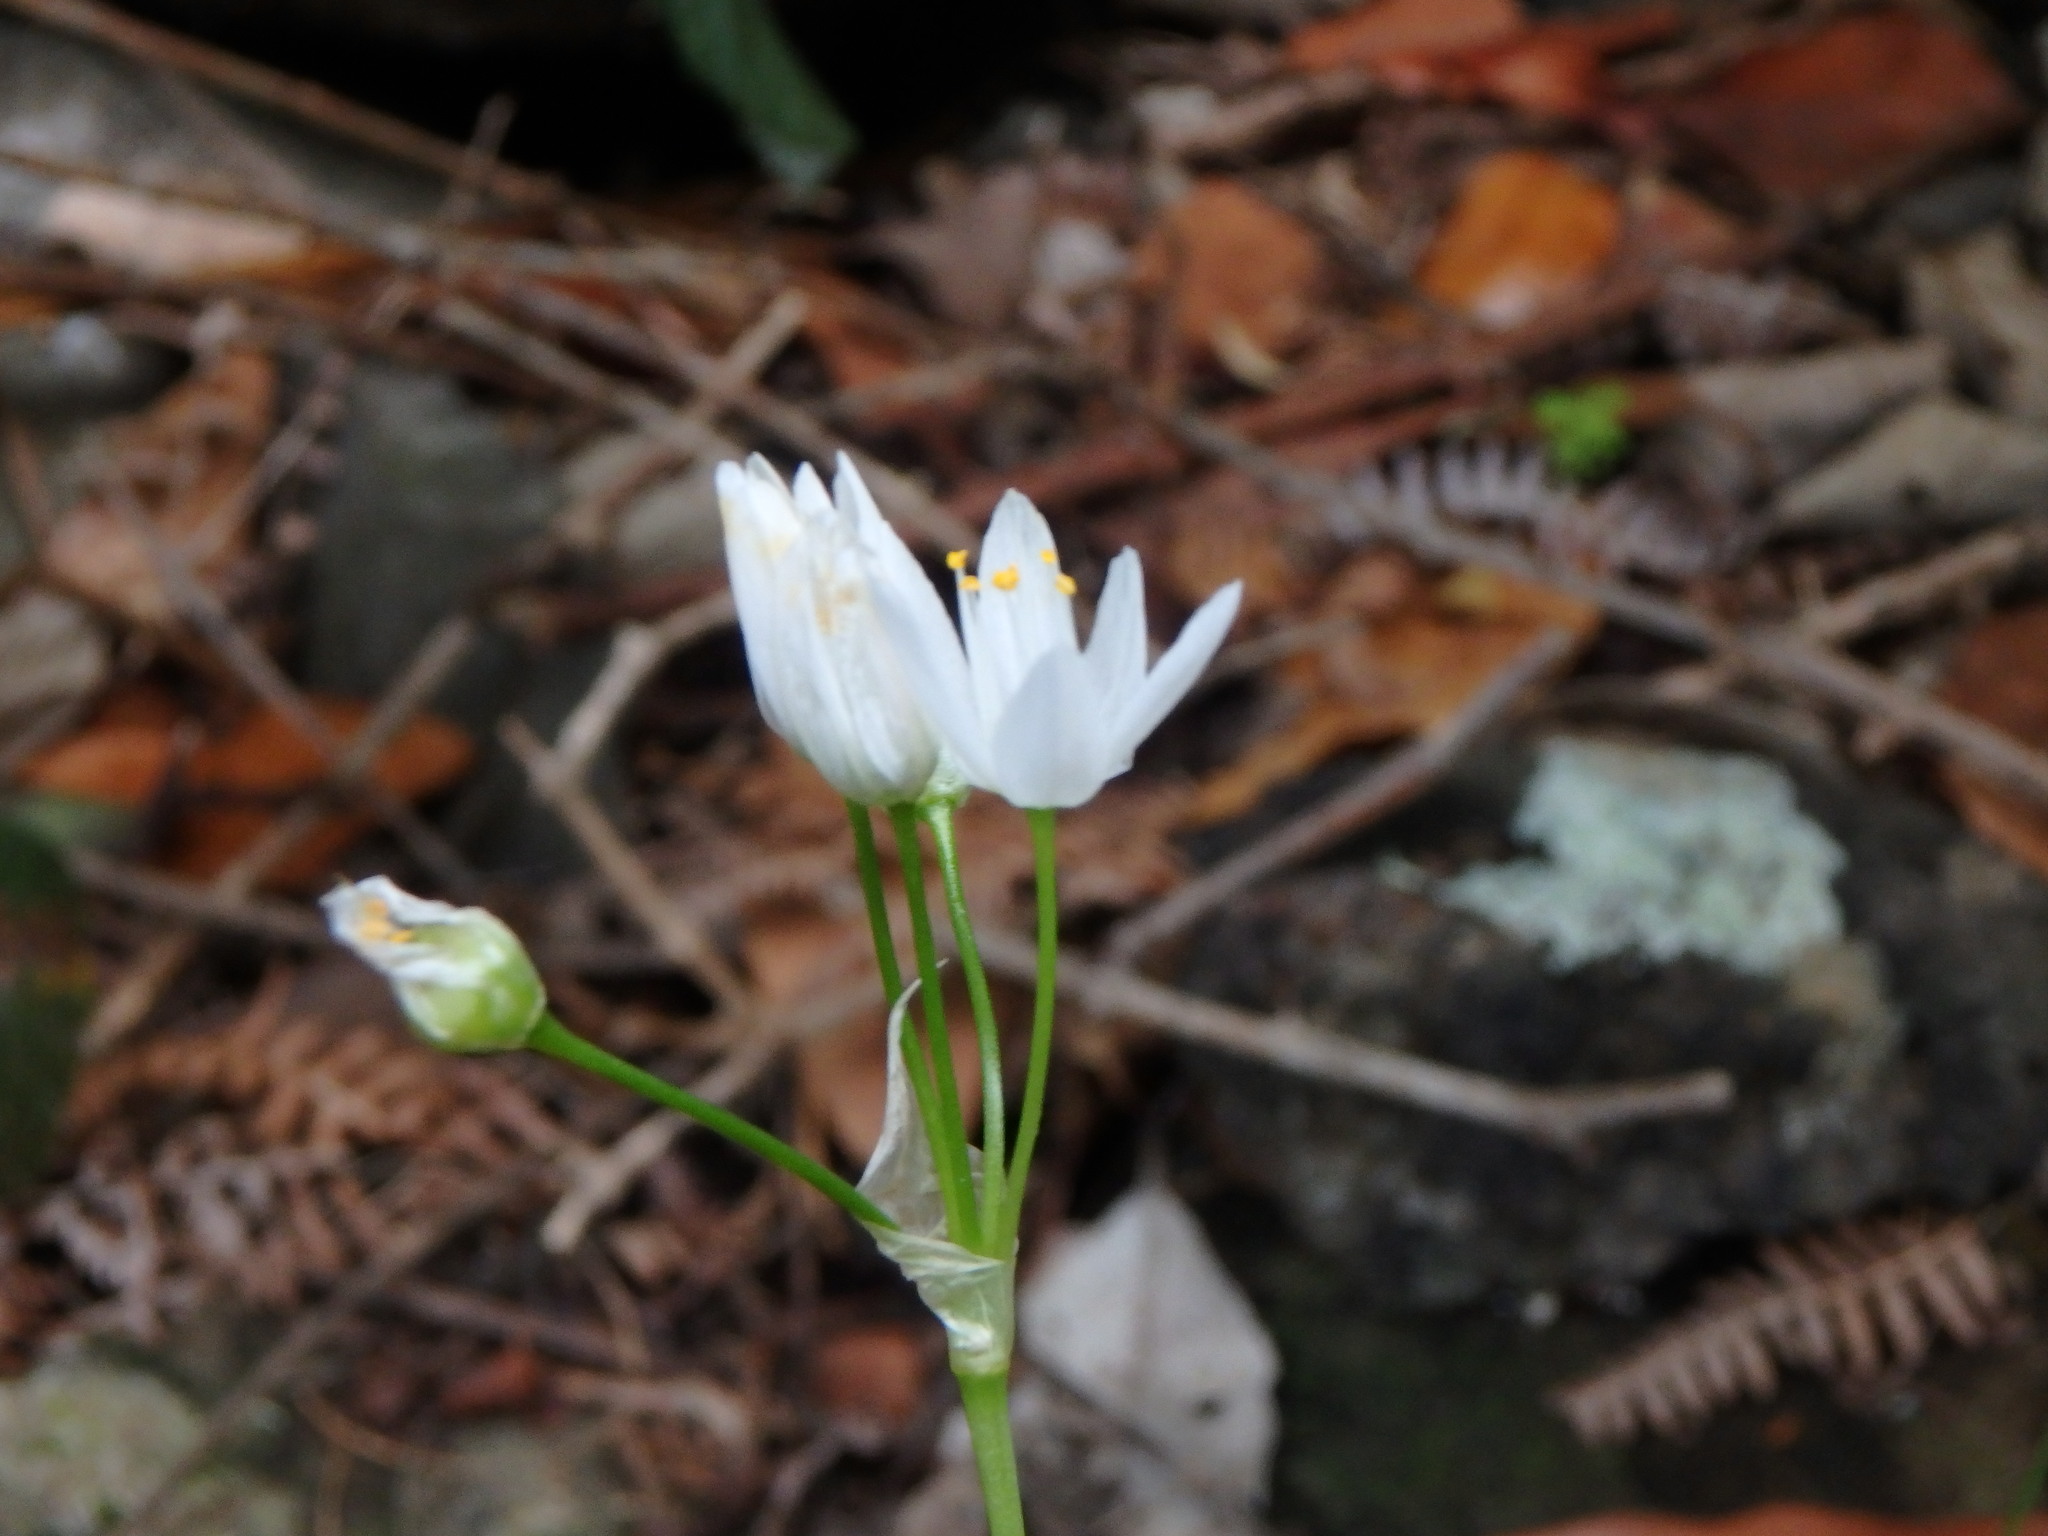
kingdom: Plantae
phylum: Tracheophyta
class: Liliopsida
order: Asparagales
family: Amaryllidaceae
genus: Allium
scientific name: Allium canariense
